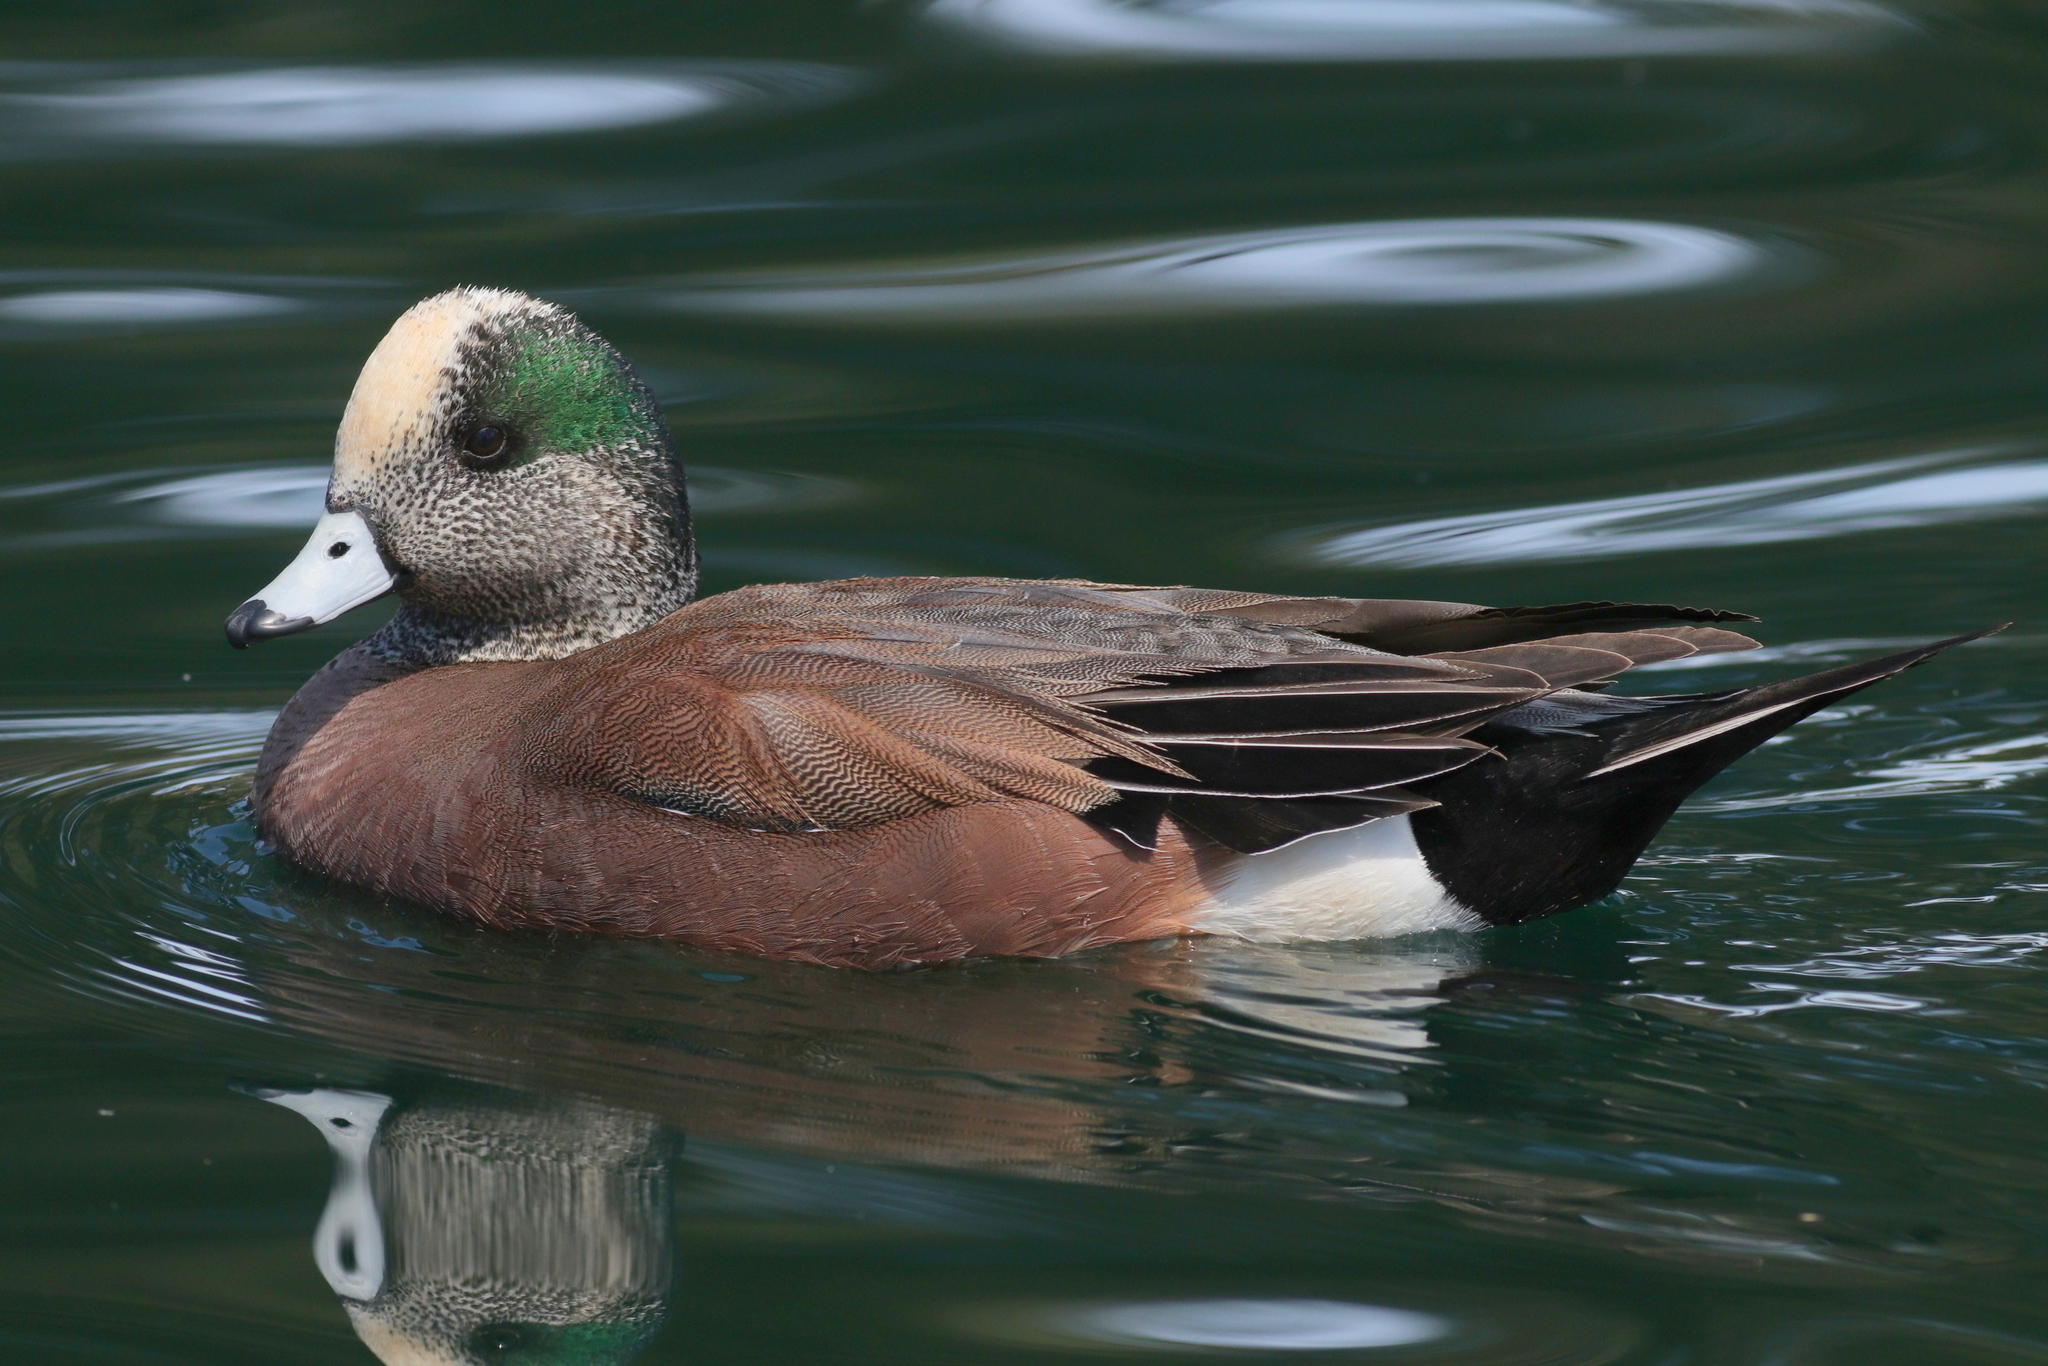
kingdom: Animalia
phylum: Chordata
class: Aves
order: Anseriformes
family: Anatidae
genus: Mareca
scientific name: Mareca americana
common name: American wigeon
